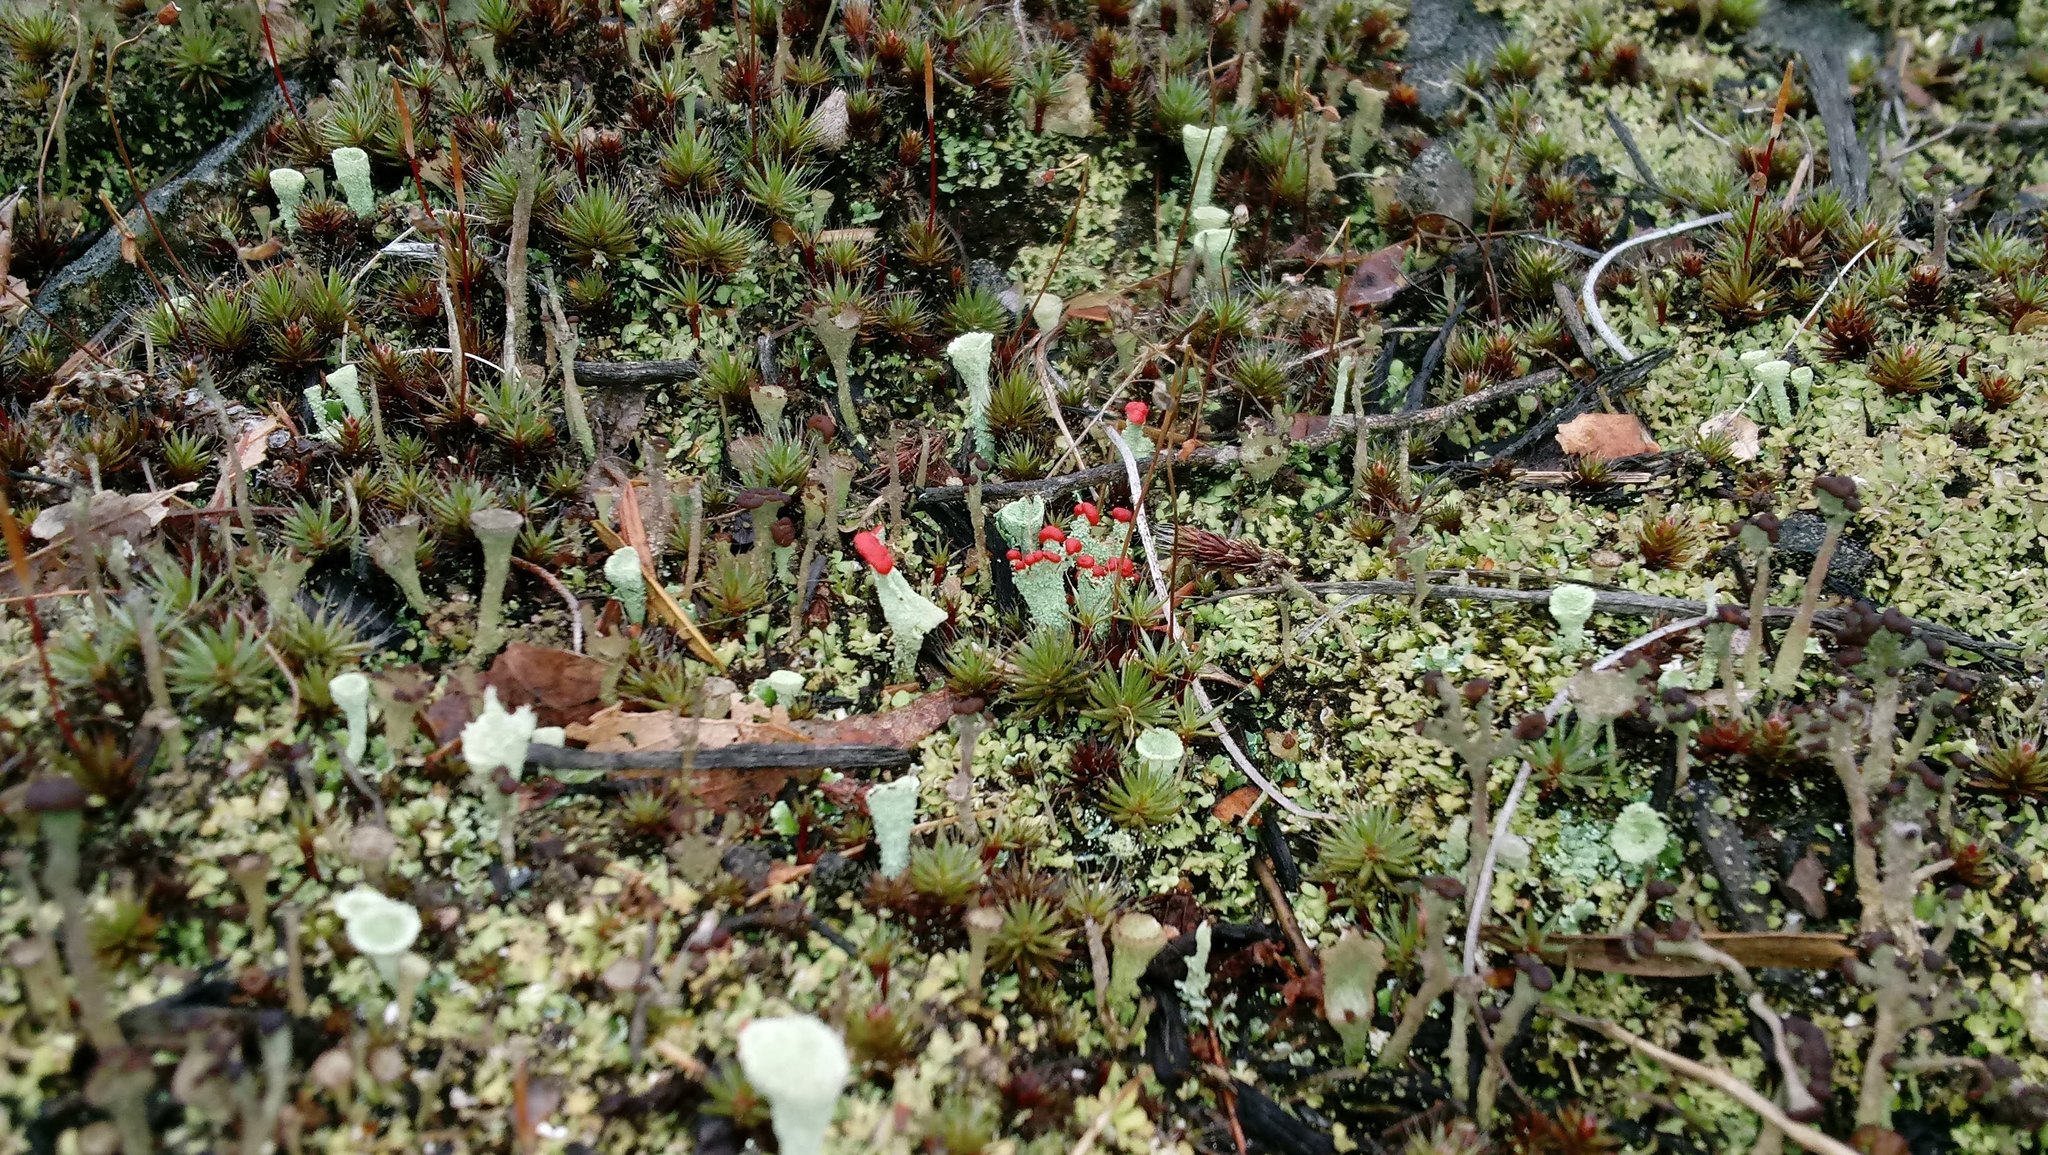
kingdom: Fungi
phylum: Ascomycota
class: Lecanoromycetes
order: Lecanorales
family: Cladoniaceae
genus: Cladonia
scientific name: Cladonia pleurota
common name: Red-fruited pixie cup
